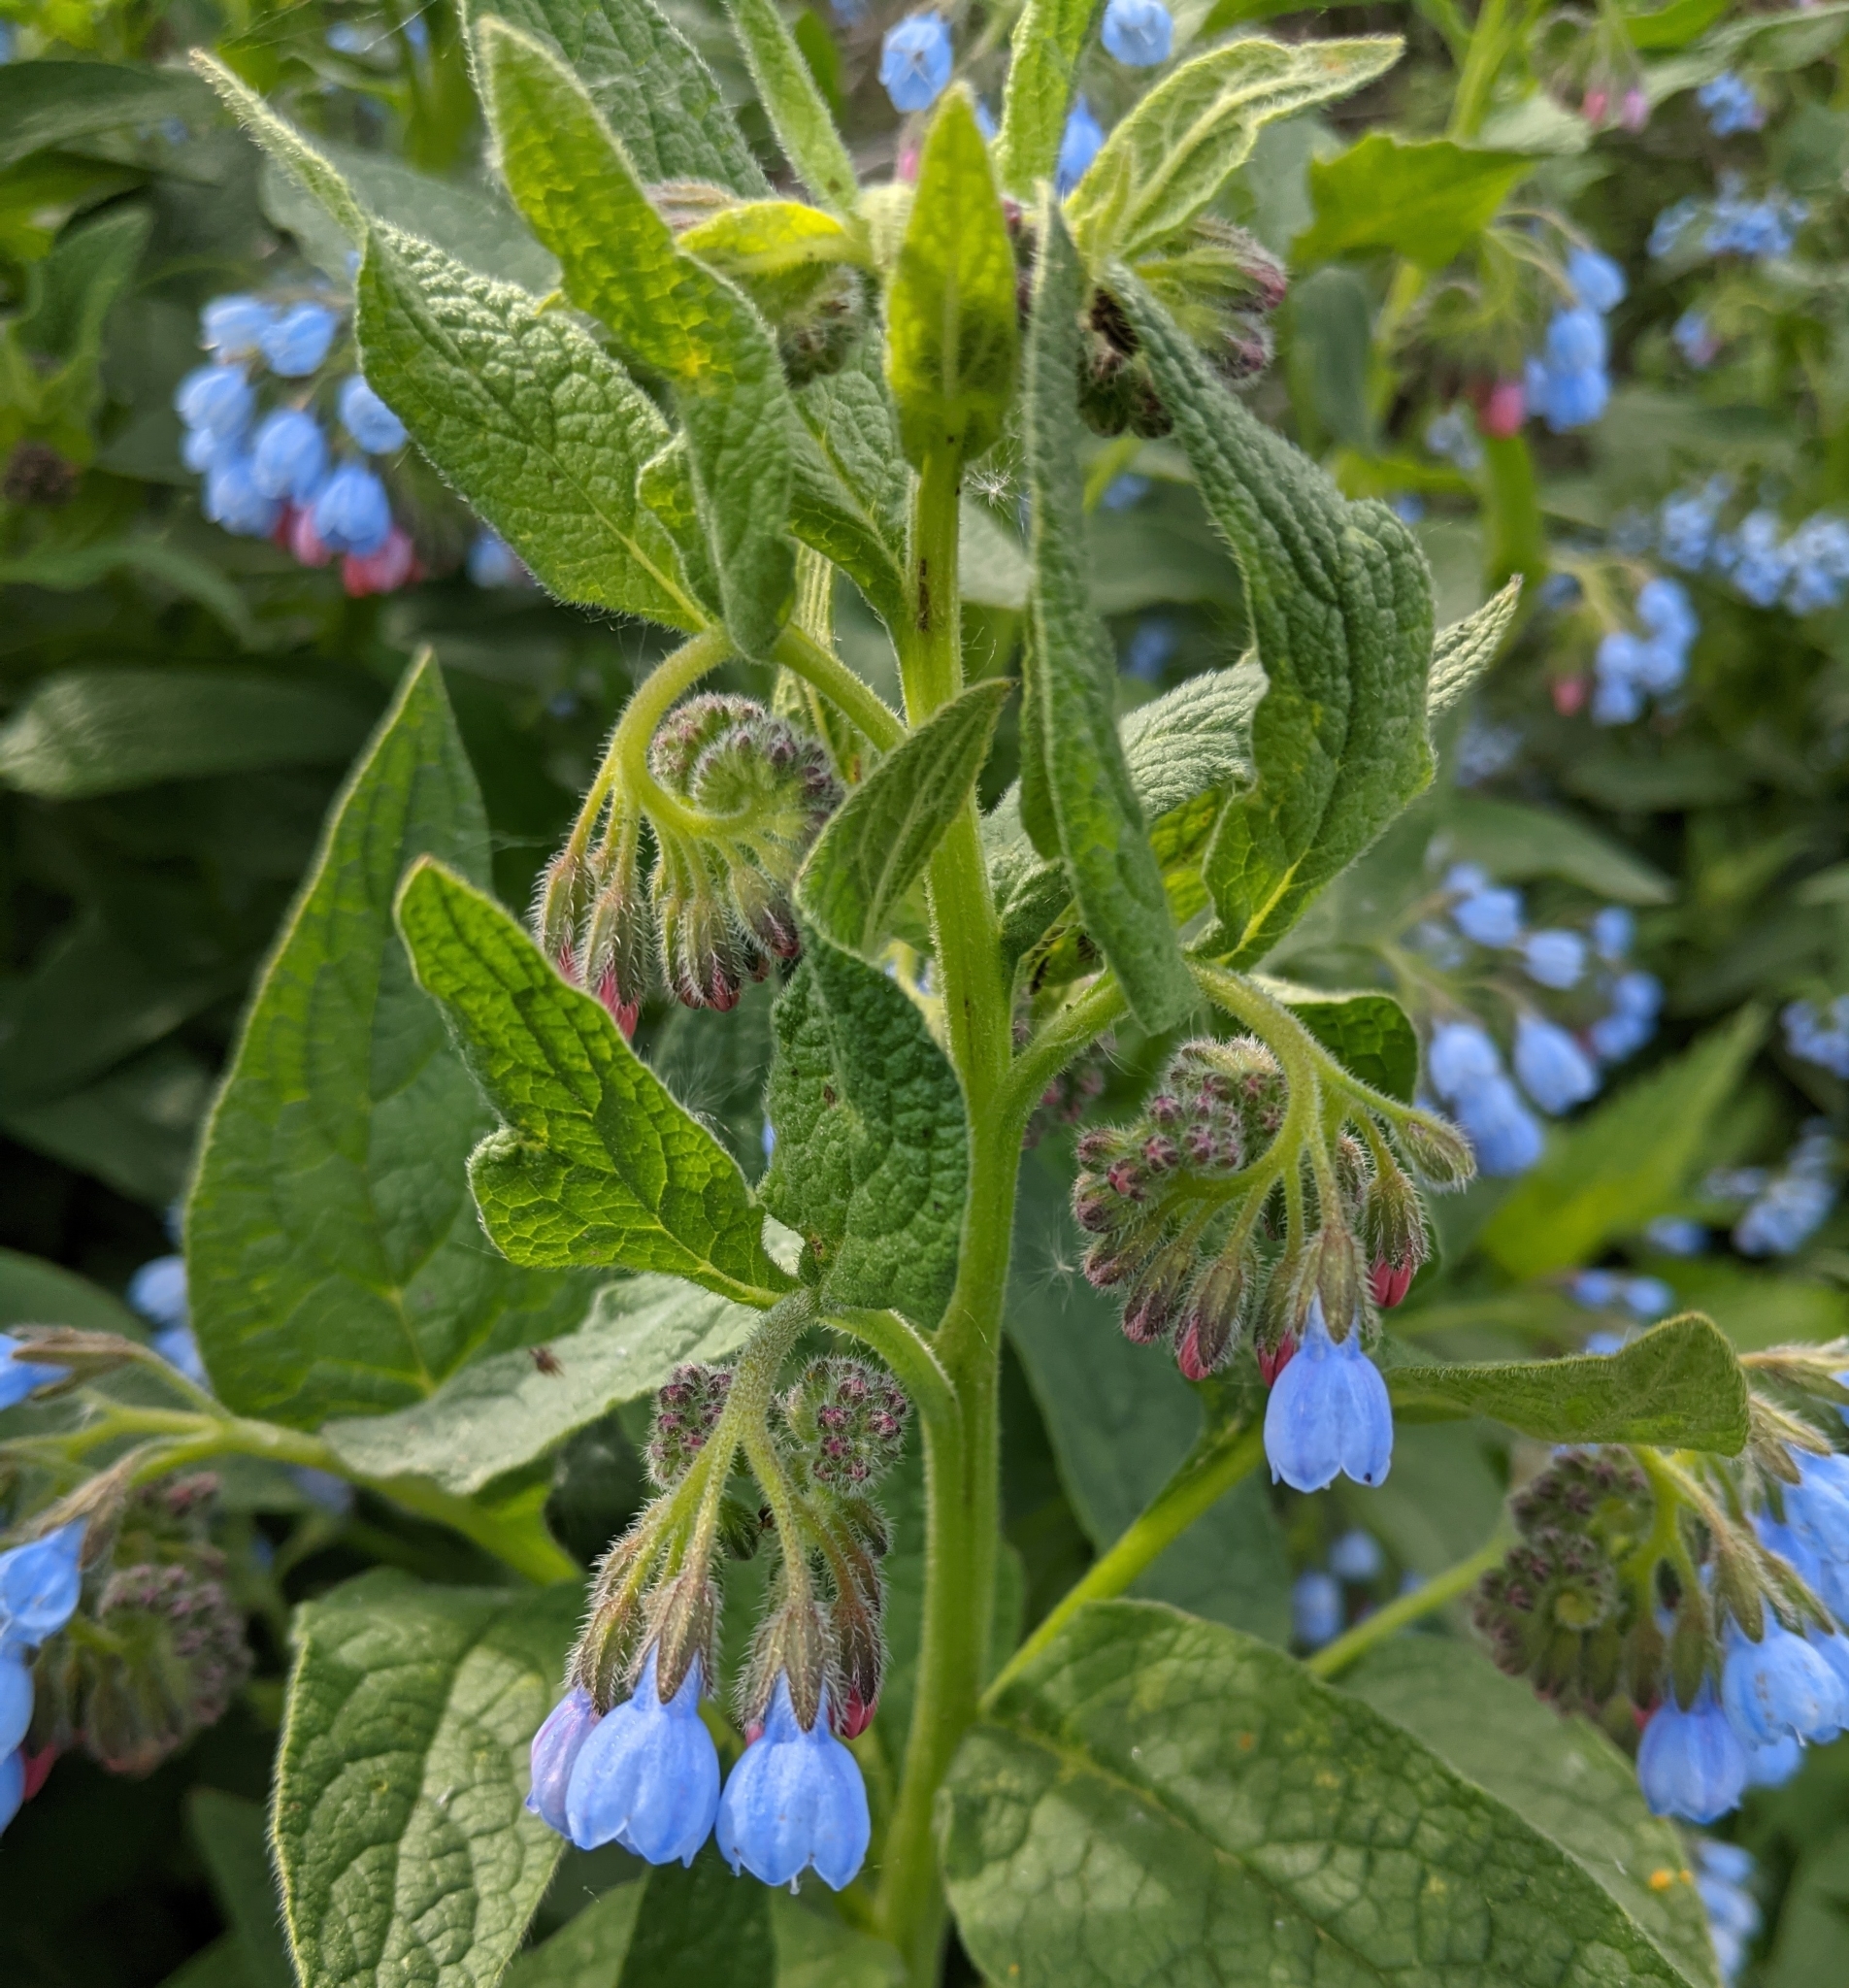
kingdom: Plantae
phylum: Tracheophyta
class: Magnoliopsida
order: Boraginales
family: Boraginaceae
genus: Symphytum
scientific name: Symphytum caucasicum
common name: Caucasian comfrey
